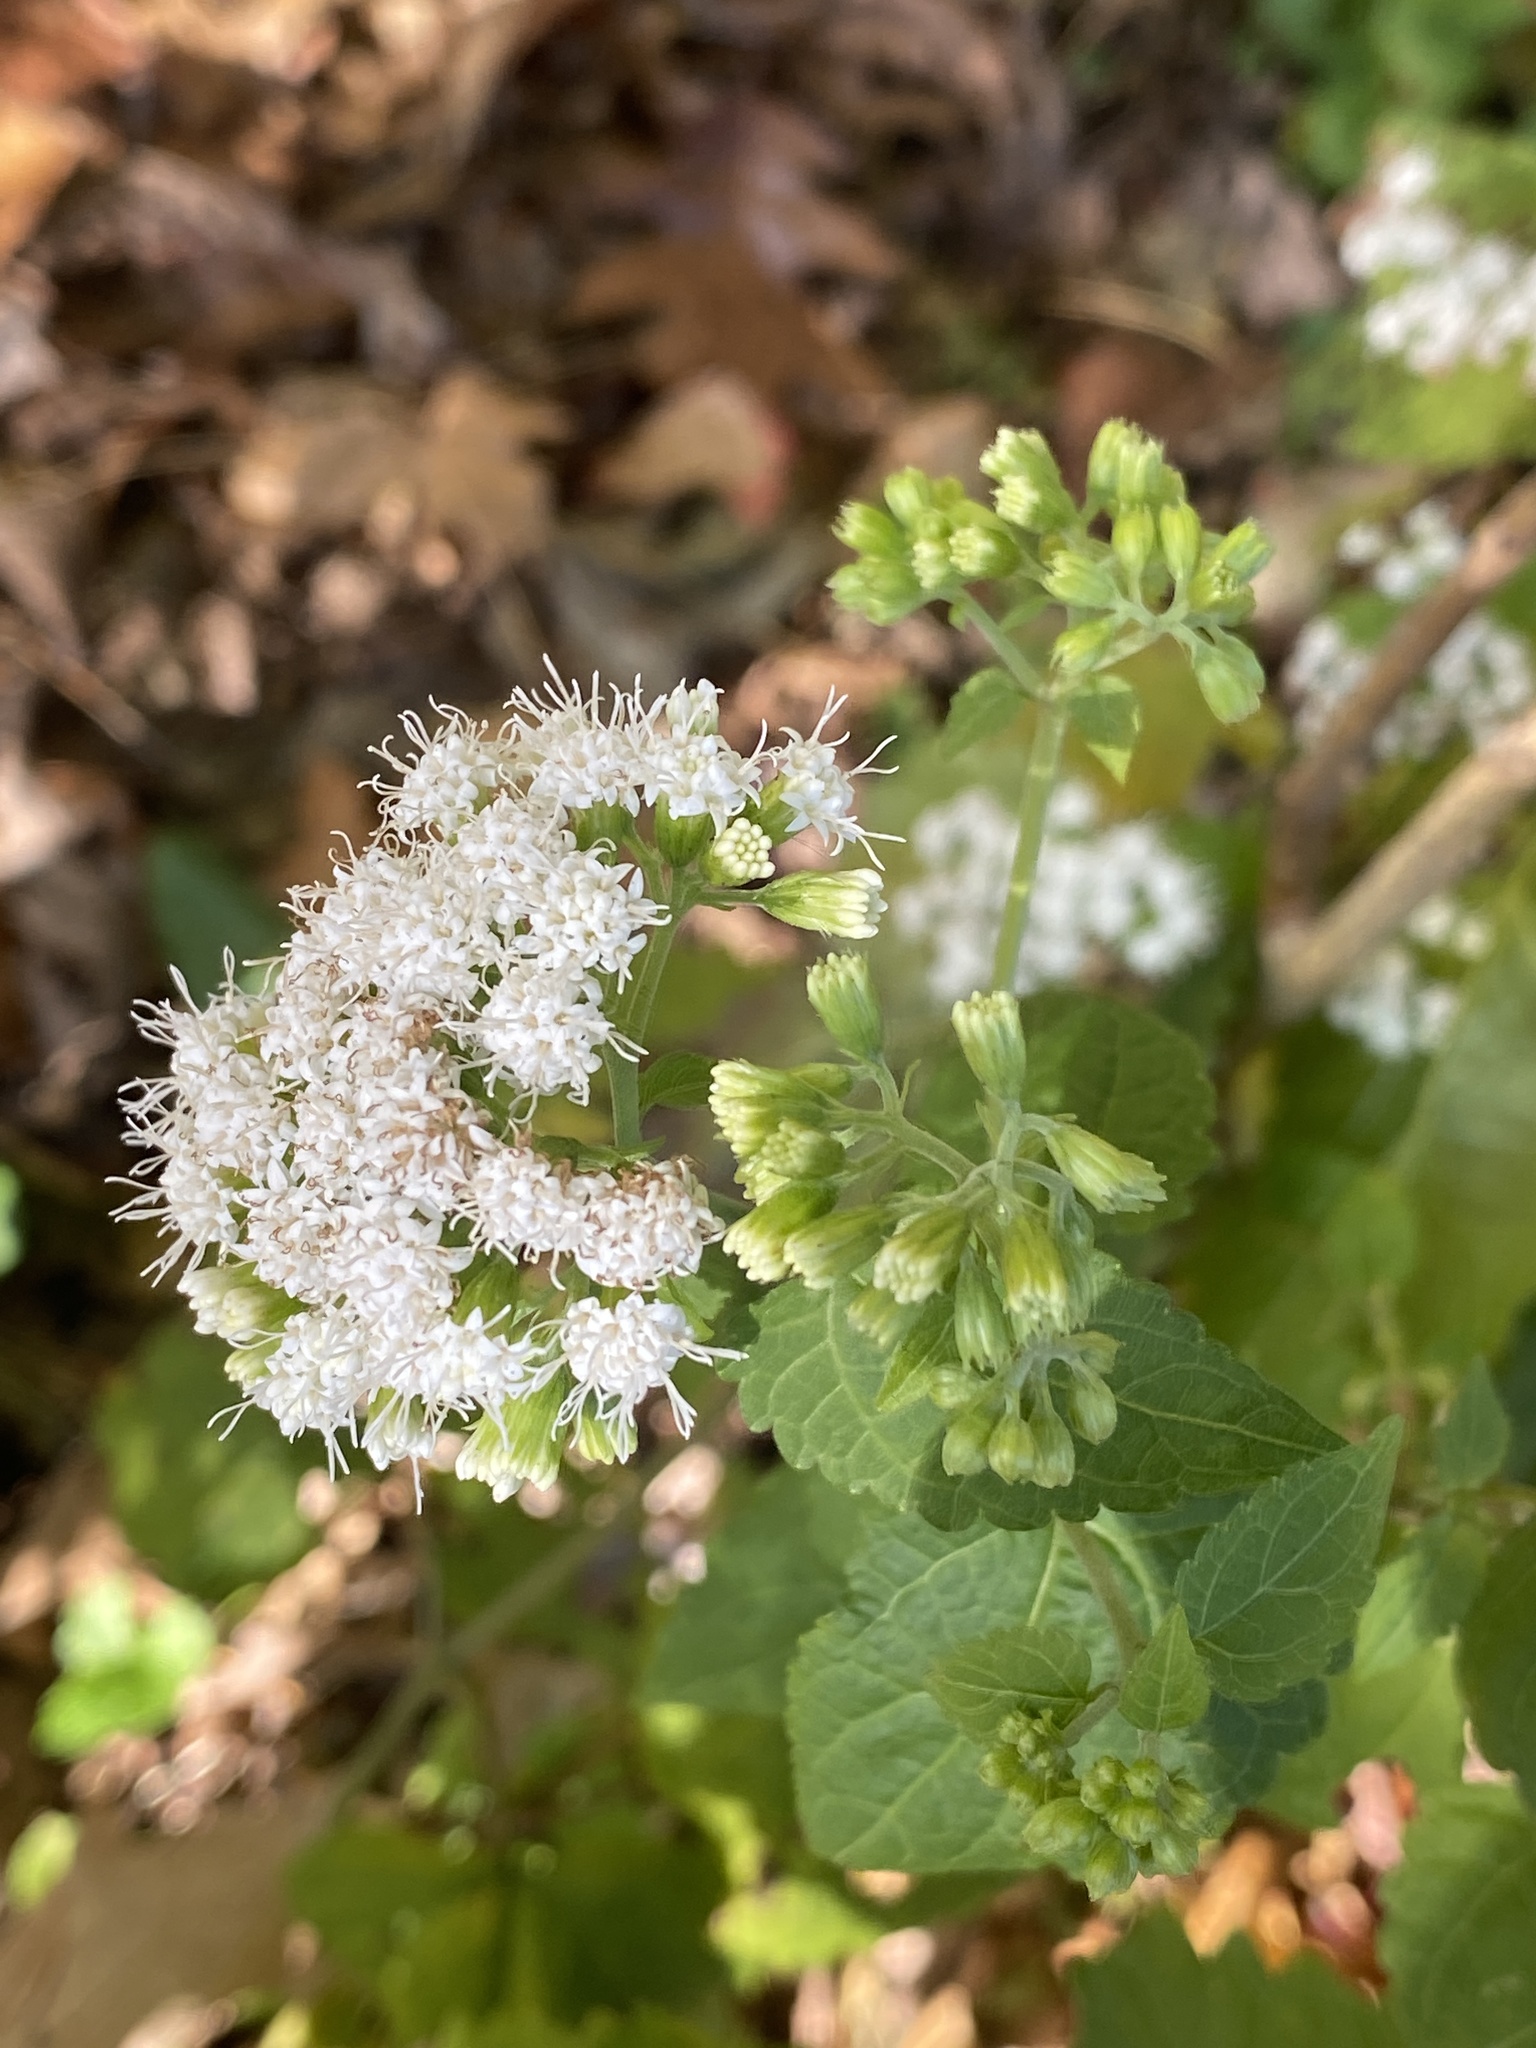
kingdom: Plantae
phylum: Tracheophyta
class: Magnoliopsida
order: Asterales
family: Asteraceae
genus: Ageratina
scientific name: Ageratina altissima
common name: White snakeroot
